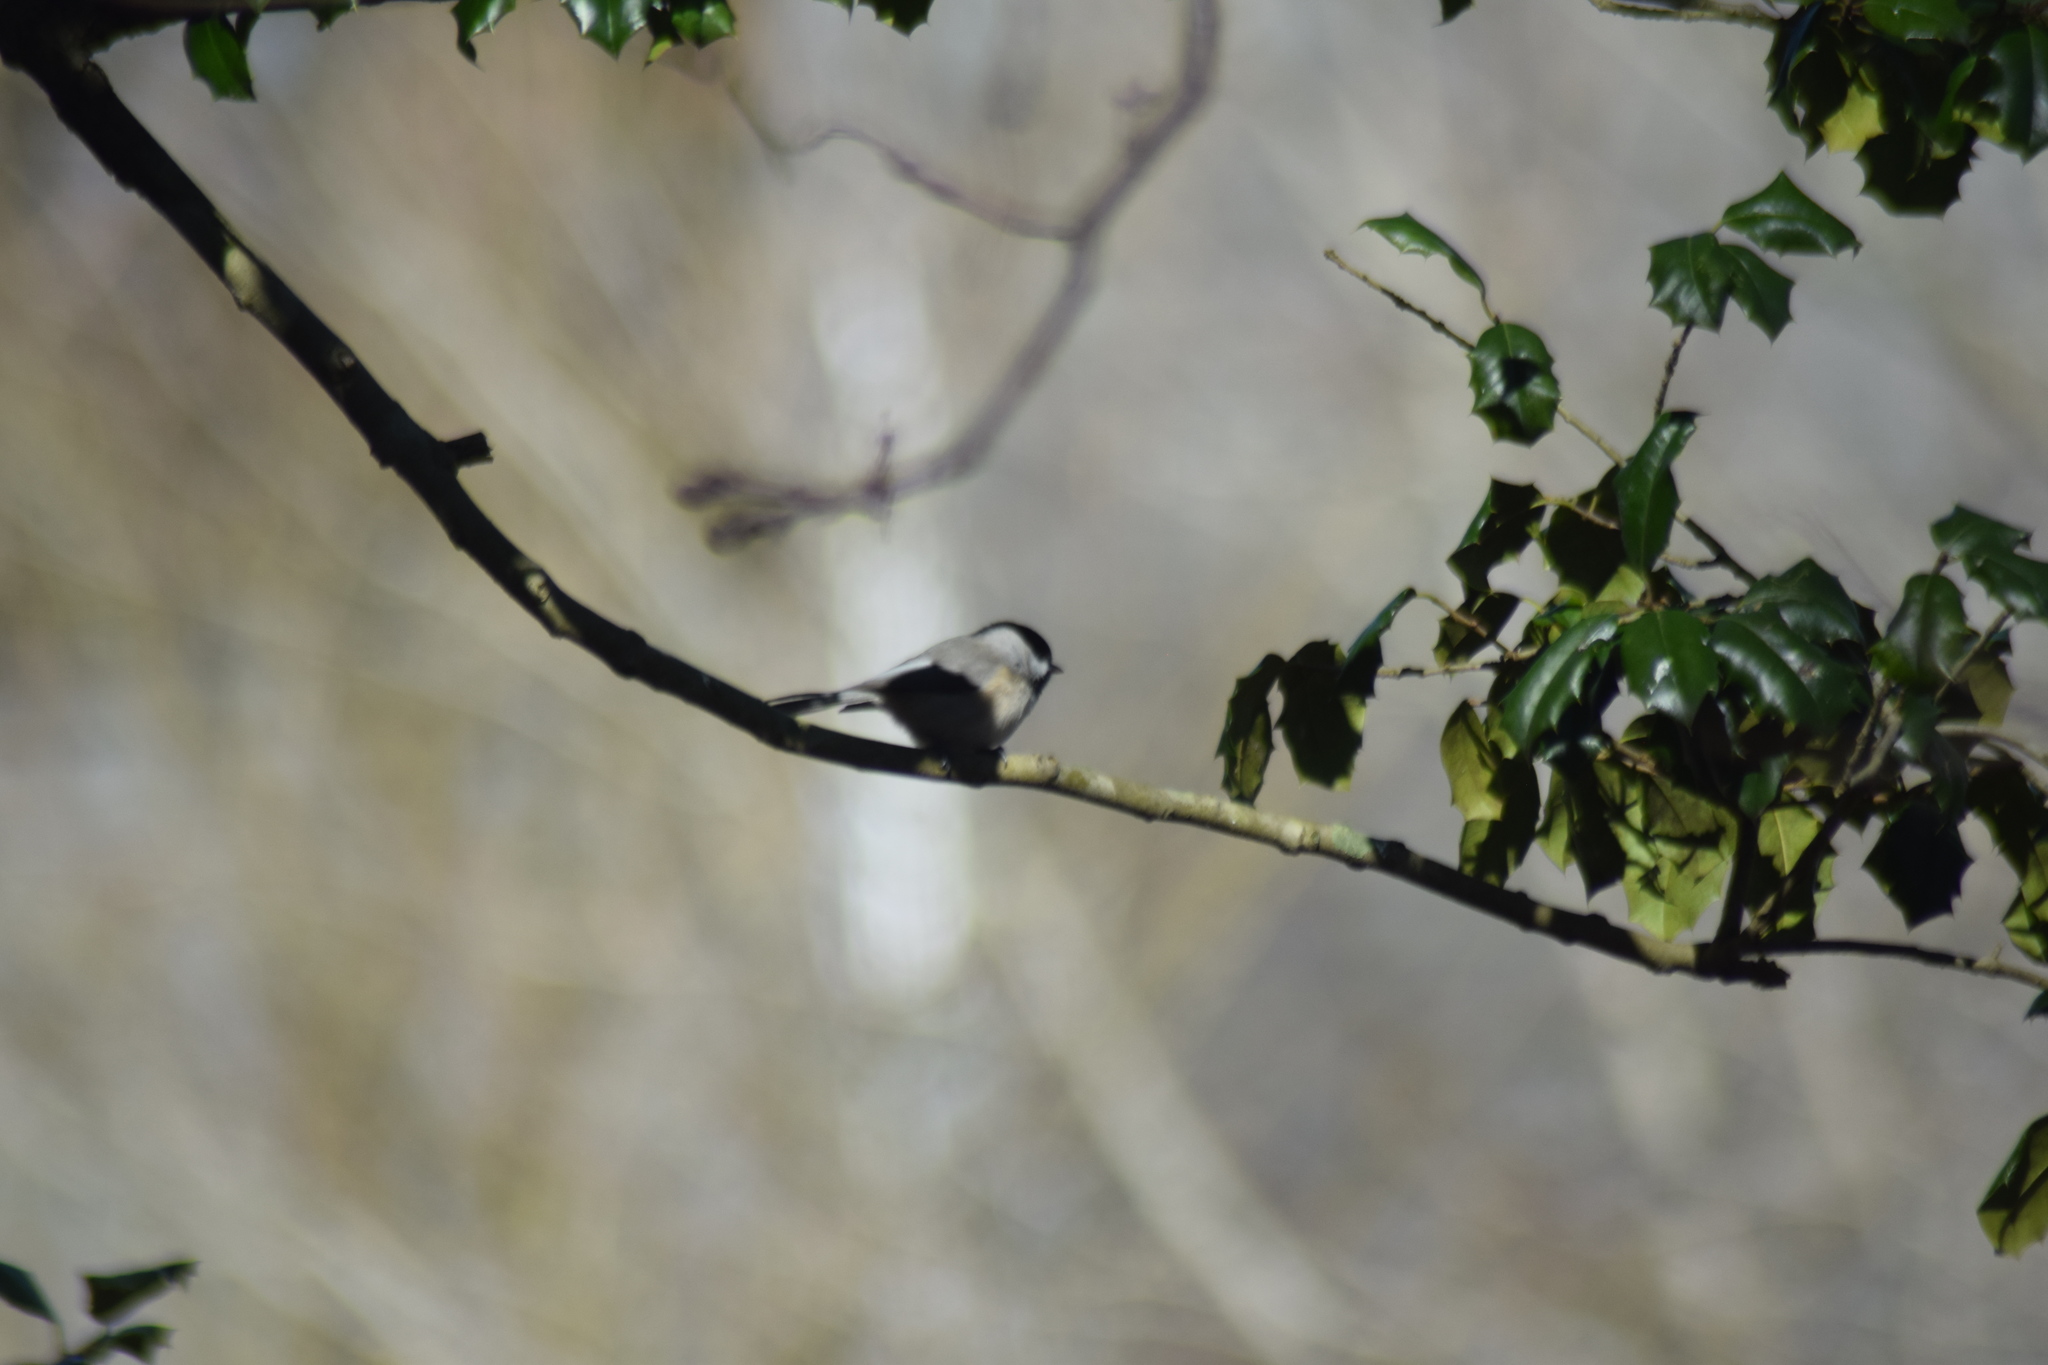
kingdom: Animalia
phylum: Chordata
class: Aves
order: Passeriformes
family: Paridae
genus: Poecile
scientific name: Poecile carolinensis
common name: Carolina chickadee
